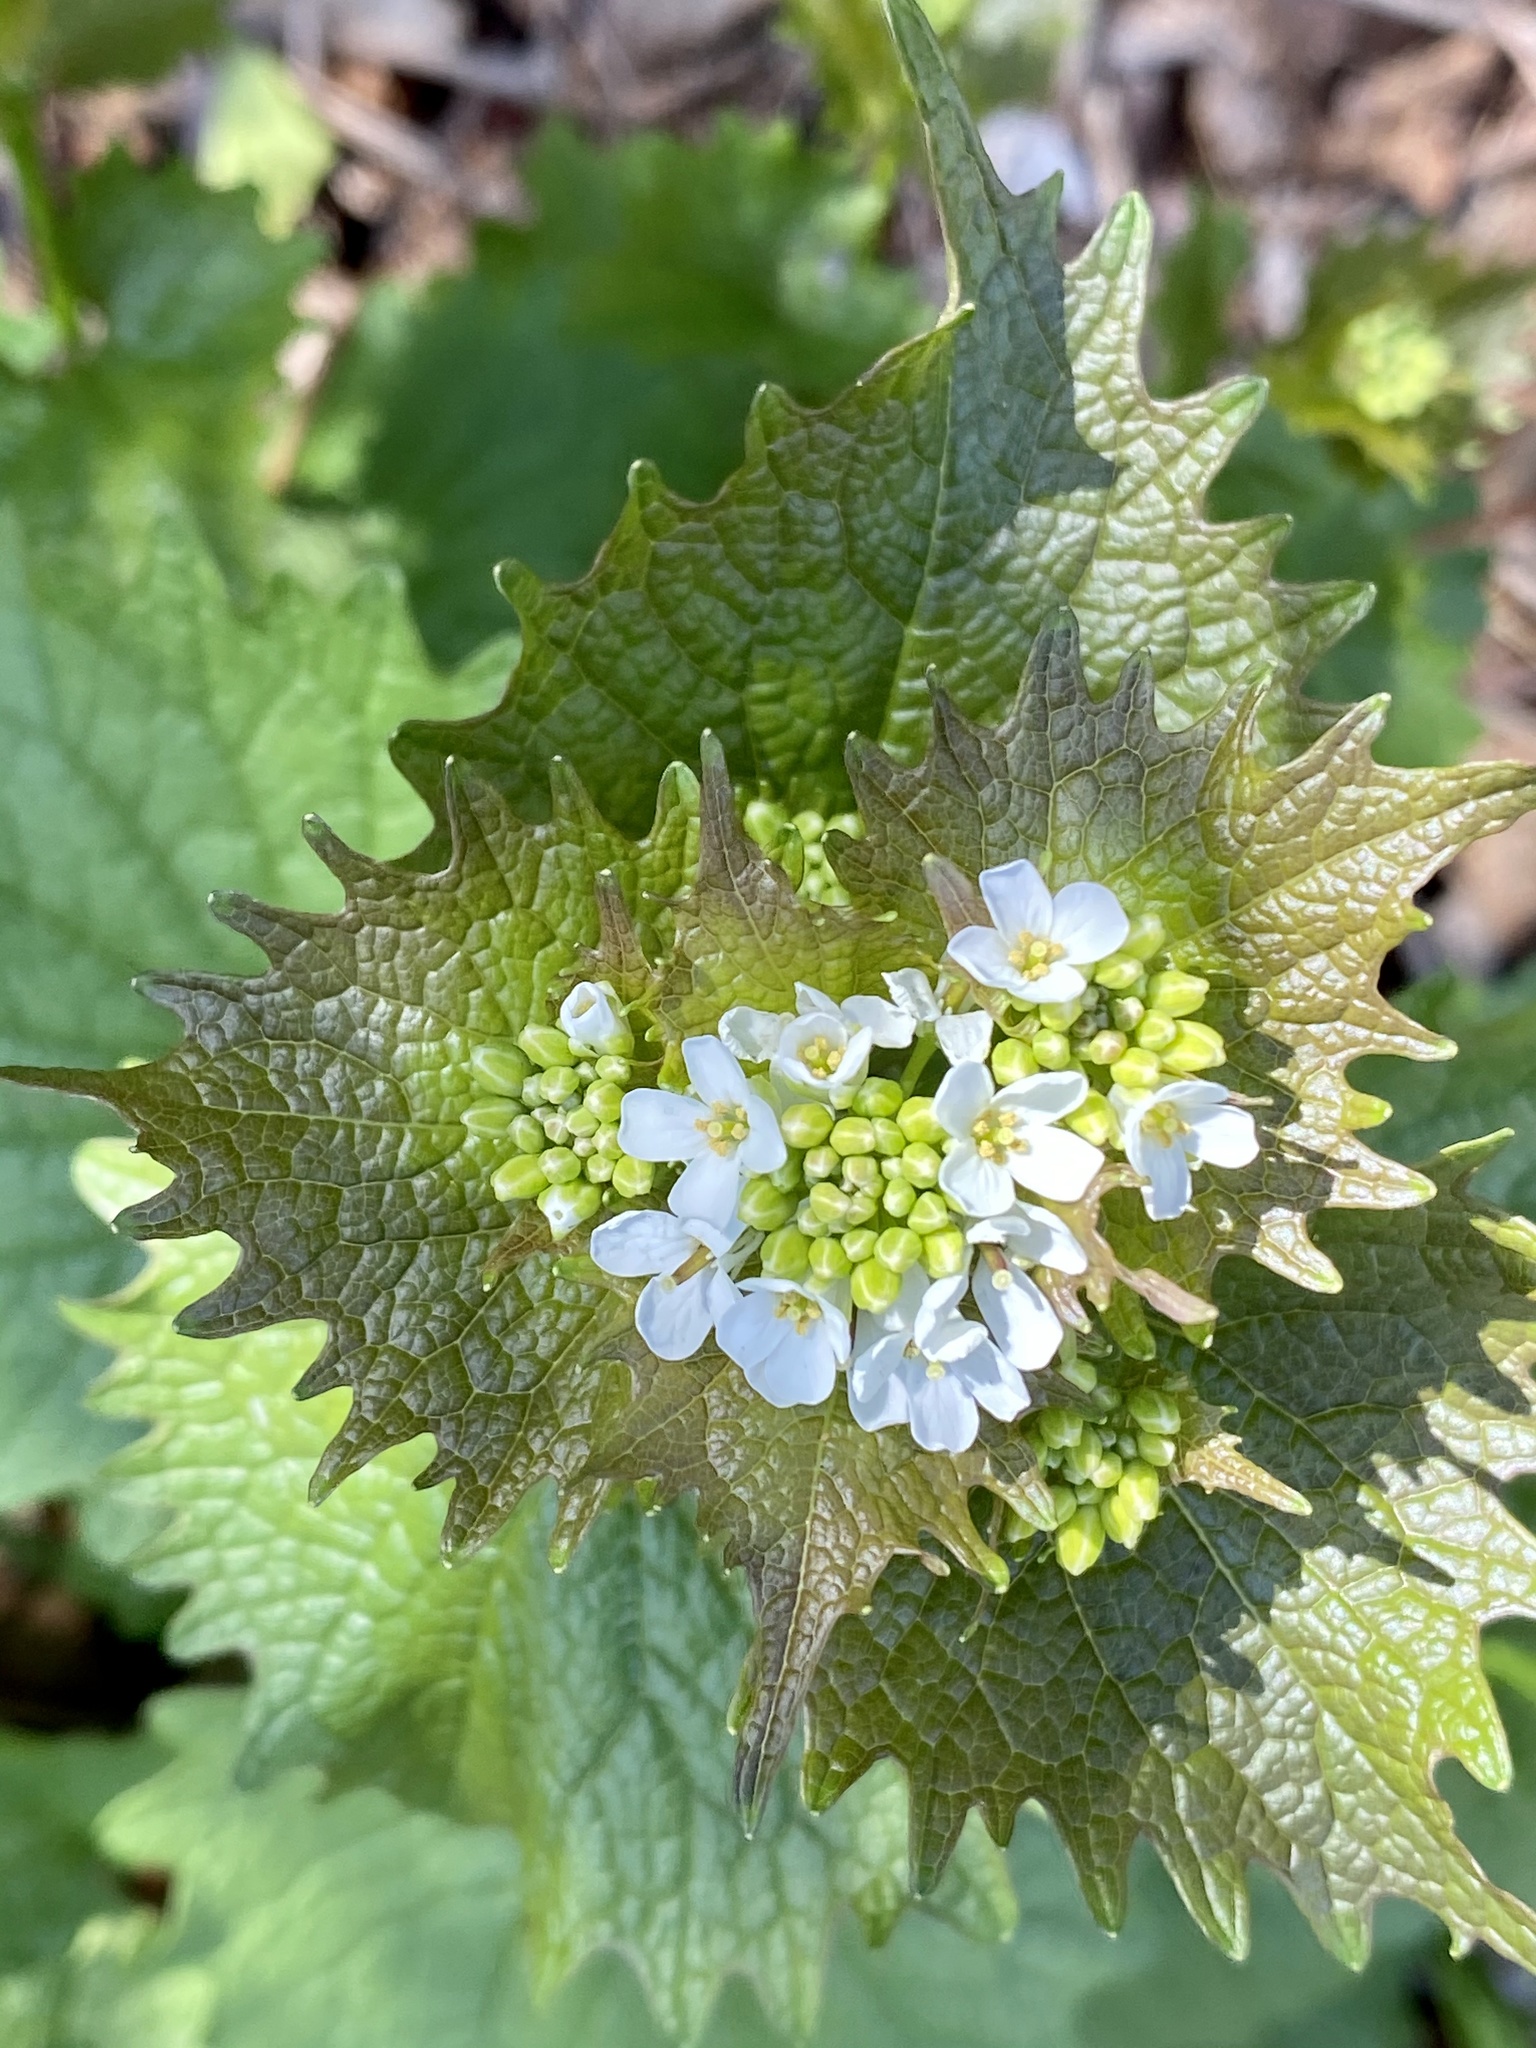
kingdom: Plantae
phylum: Tracheophyta
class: Magnoliopsida
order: Brassicales
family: Brassicaceae
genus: Alliaria
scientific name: Alliaria petiolata
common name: Garlic mustard
